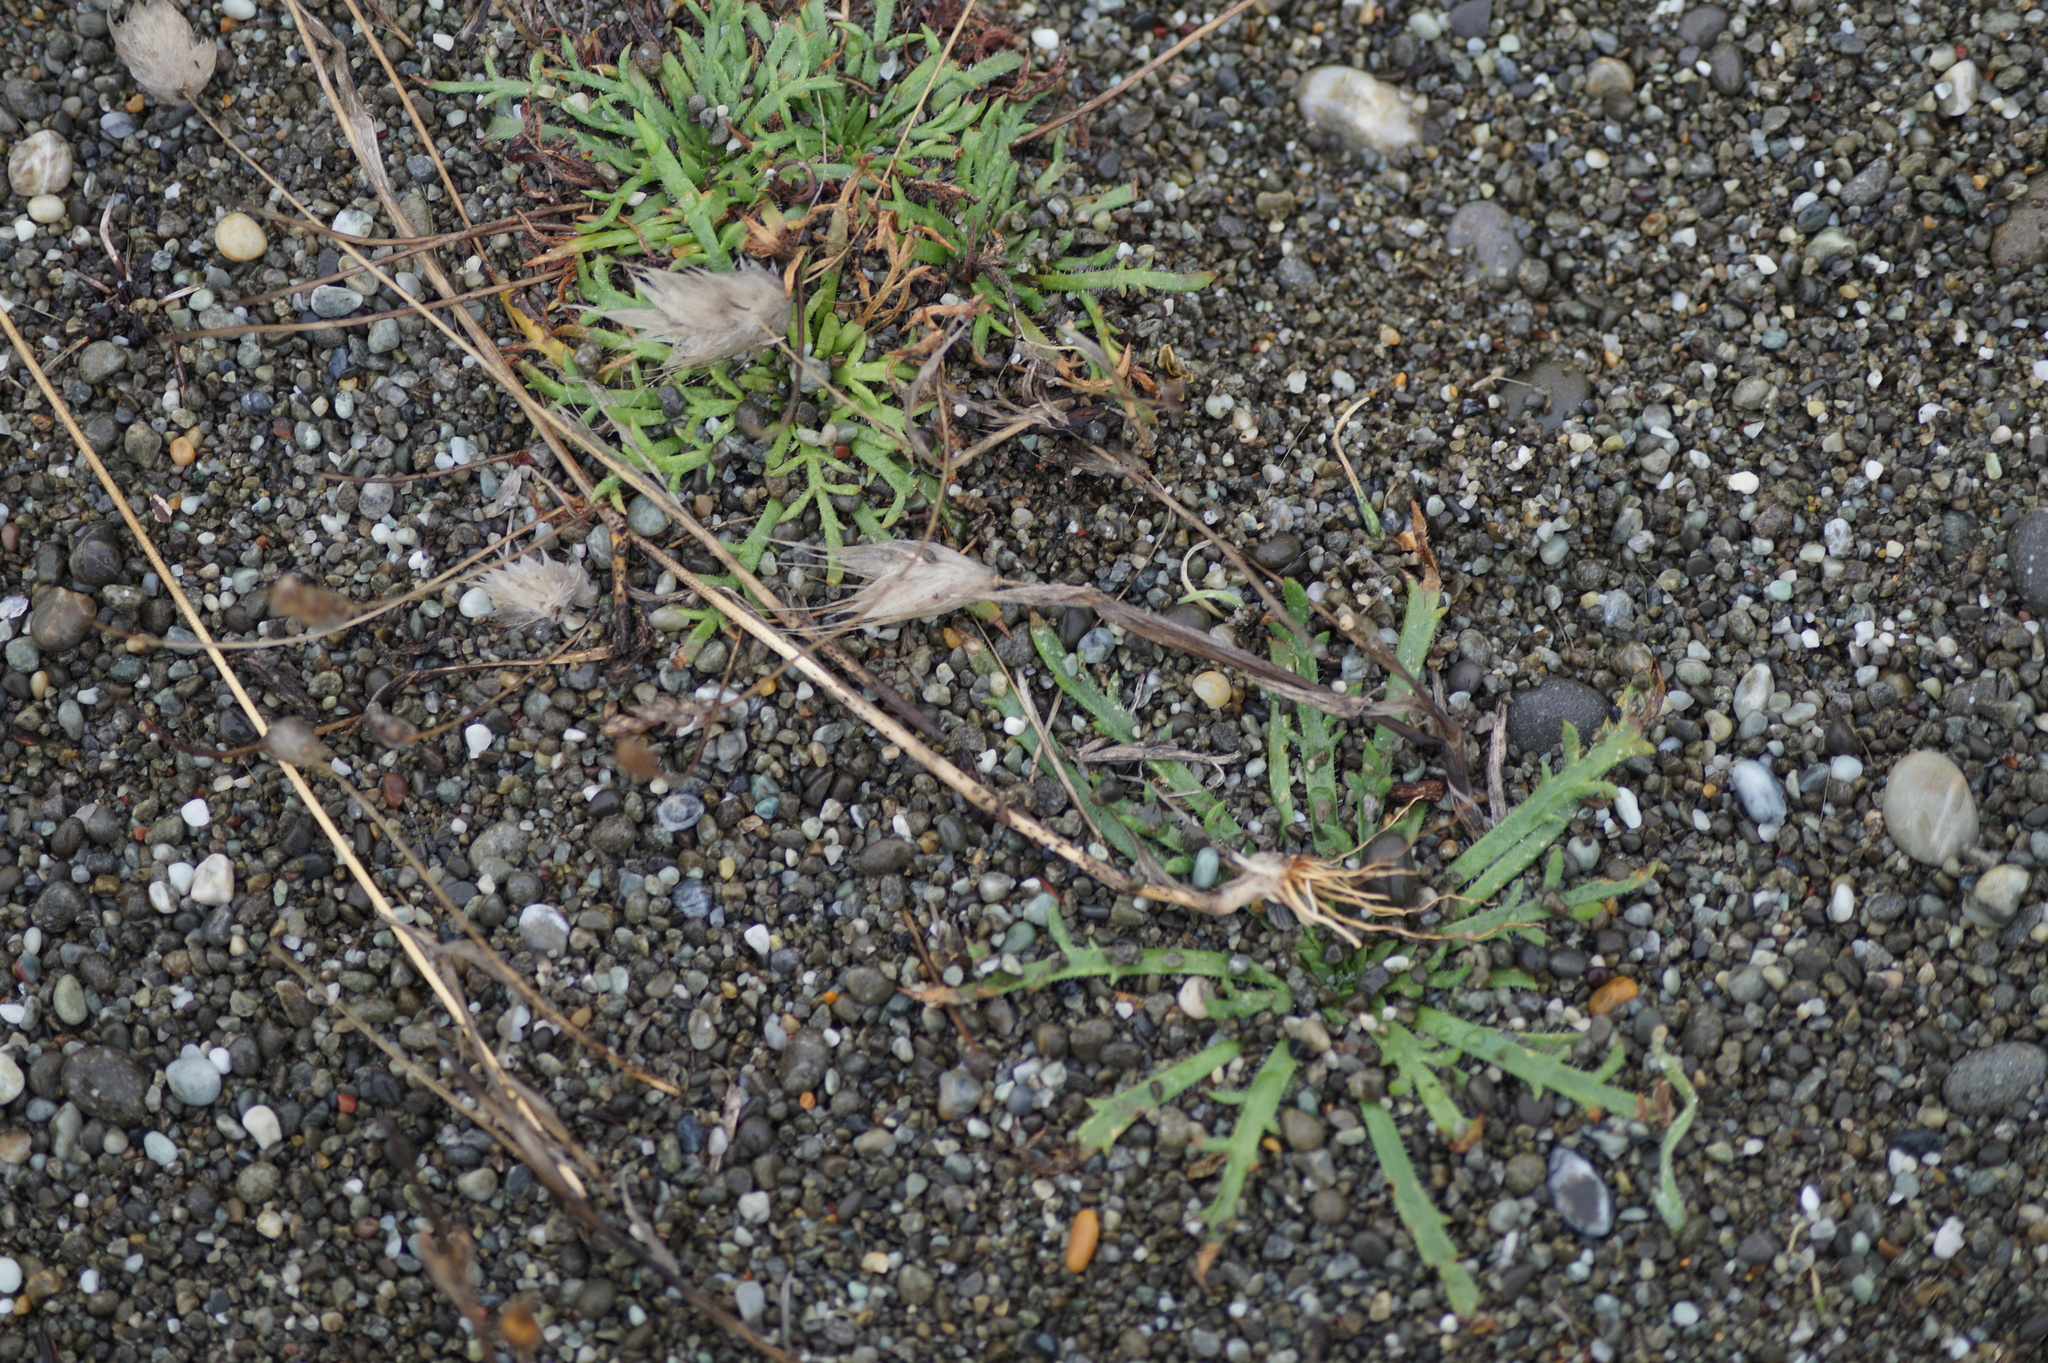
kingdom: Plantae
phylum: Tracheophyta
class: Magnoliopsida
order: Lamiales
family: Plantaginaceae
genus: Plantago
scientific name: Plantago coronopus
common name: Buck's-horn plantain
